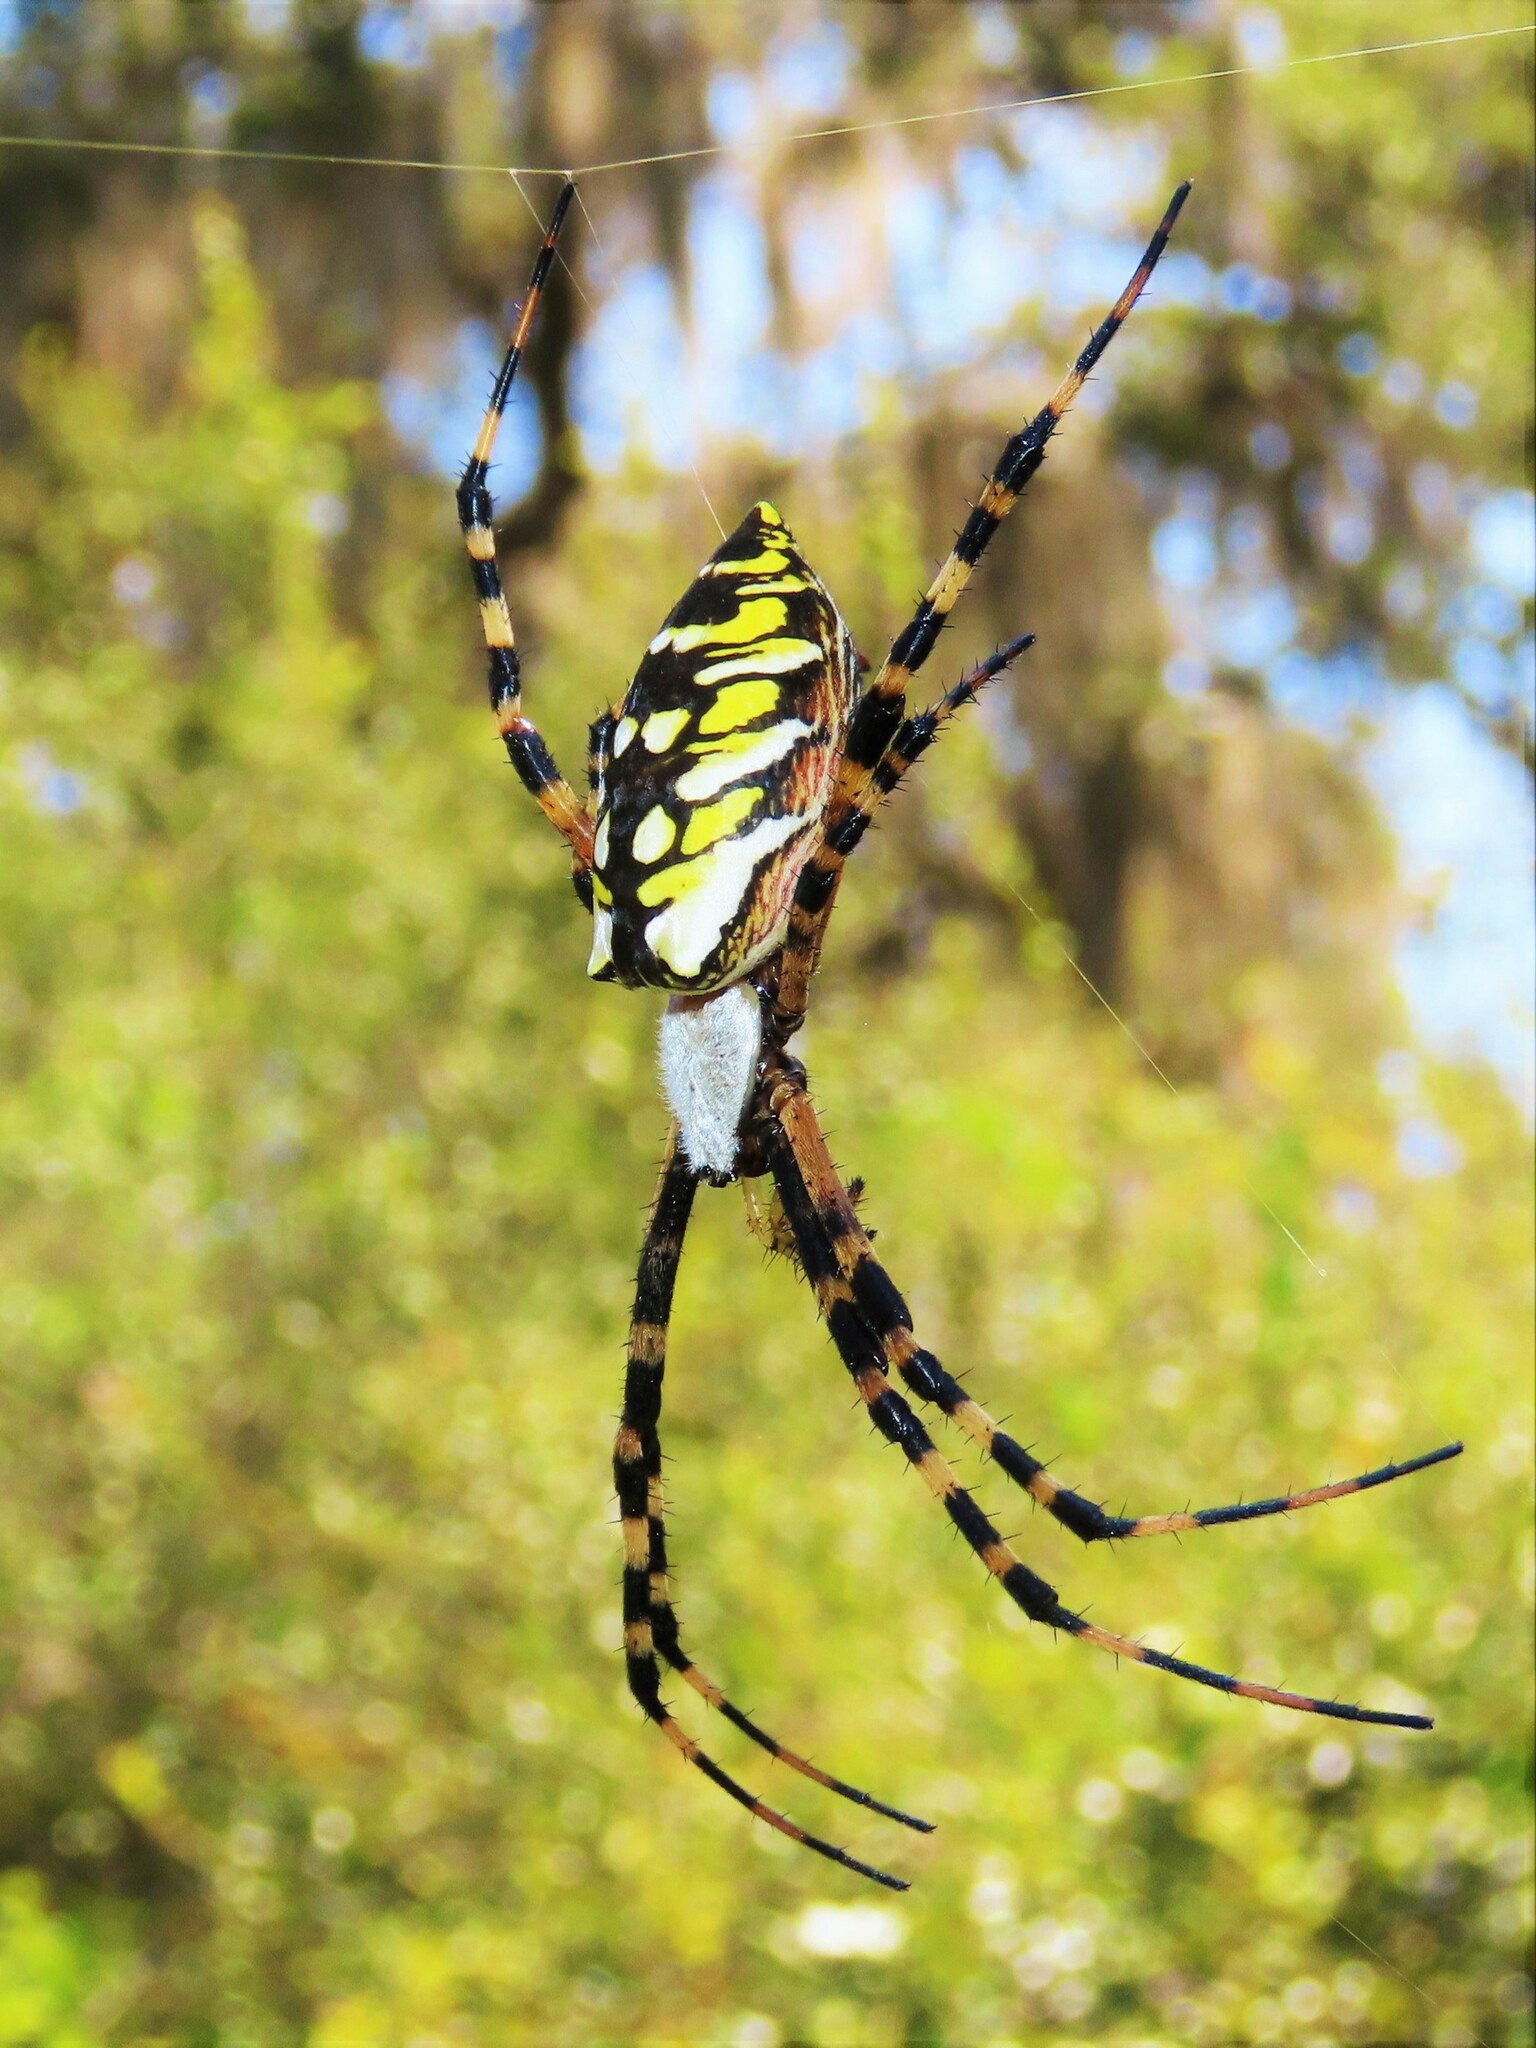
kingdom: Animalia
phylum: Arthropoda
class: Arachnida
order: Araneae
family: Araneidae
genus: Argiope
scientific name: Argiope aurantia
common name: Orb weavers
